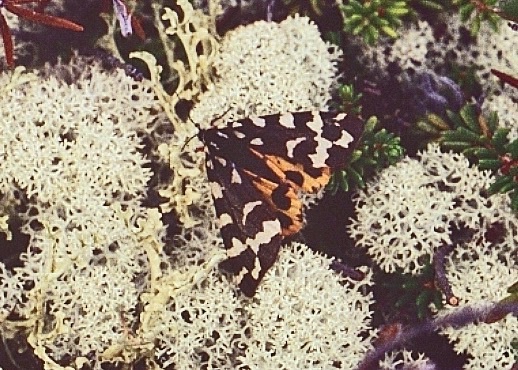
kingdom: Animalia
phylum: Arthropoda
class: Insecta
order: Lepidoptera
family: Erebidae
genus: Arctia
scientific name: Arctia
